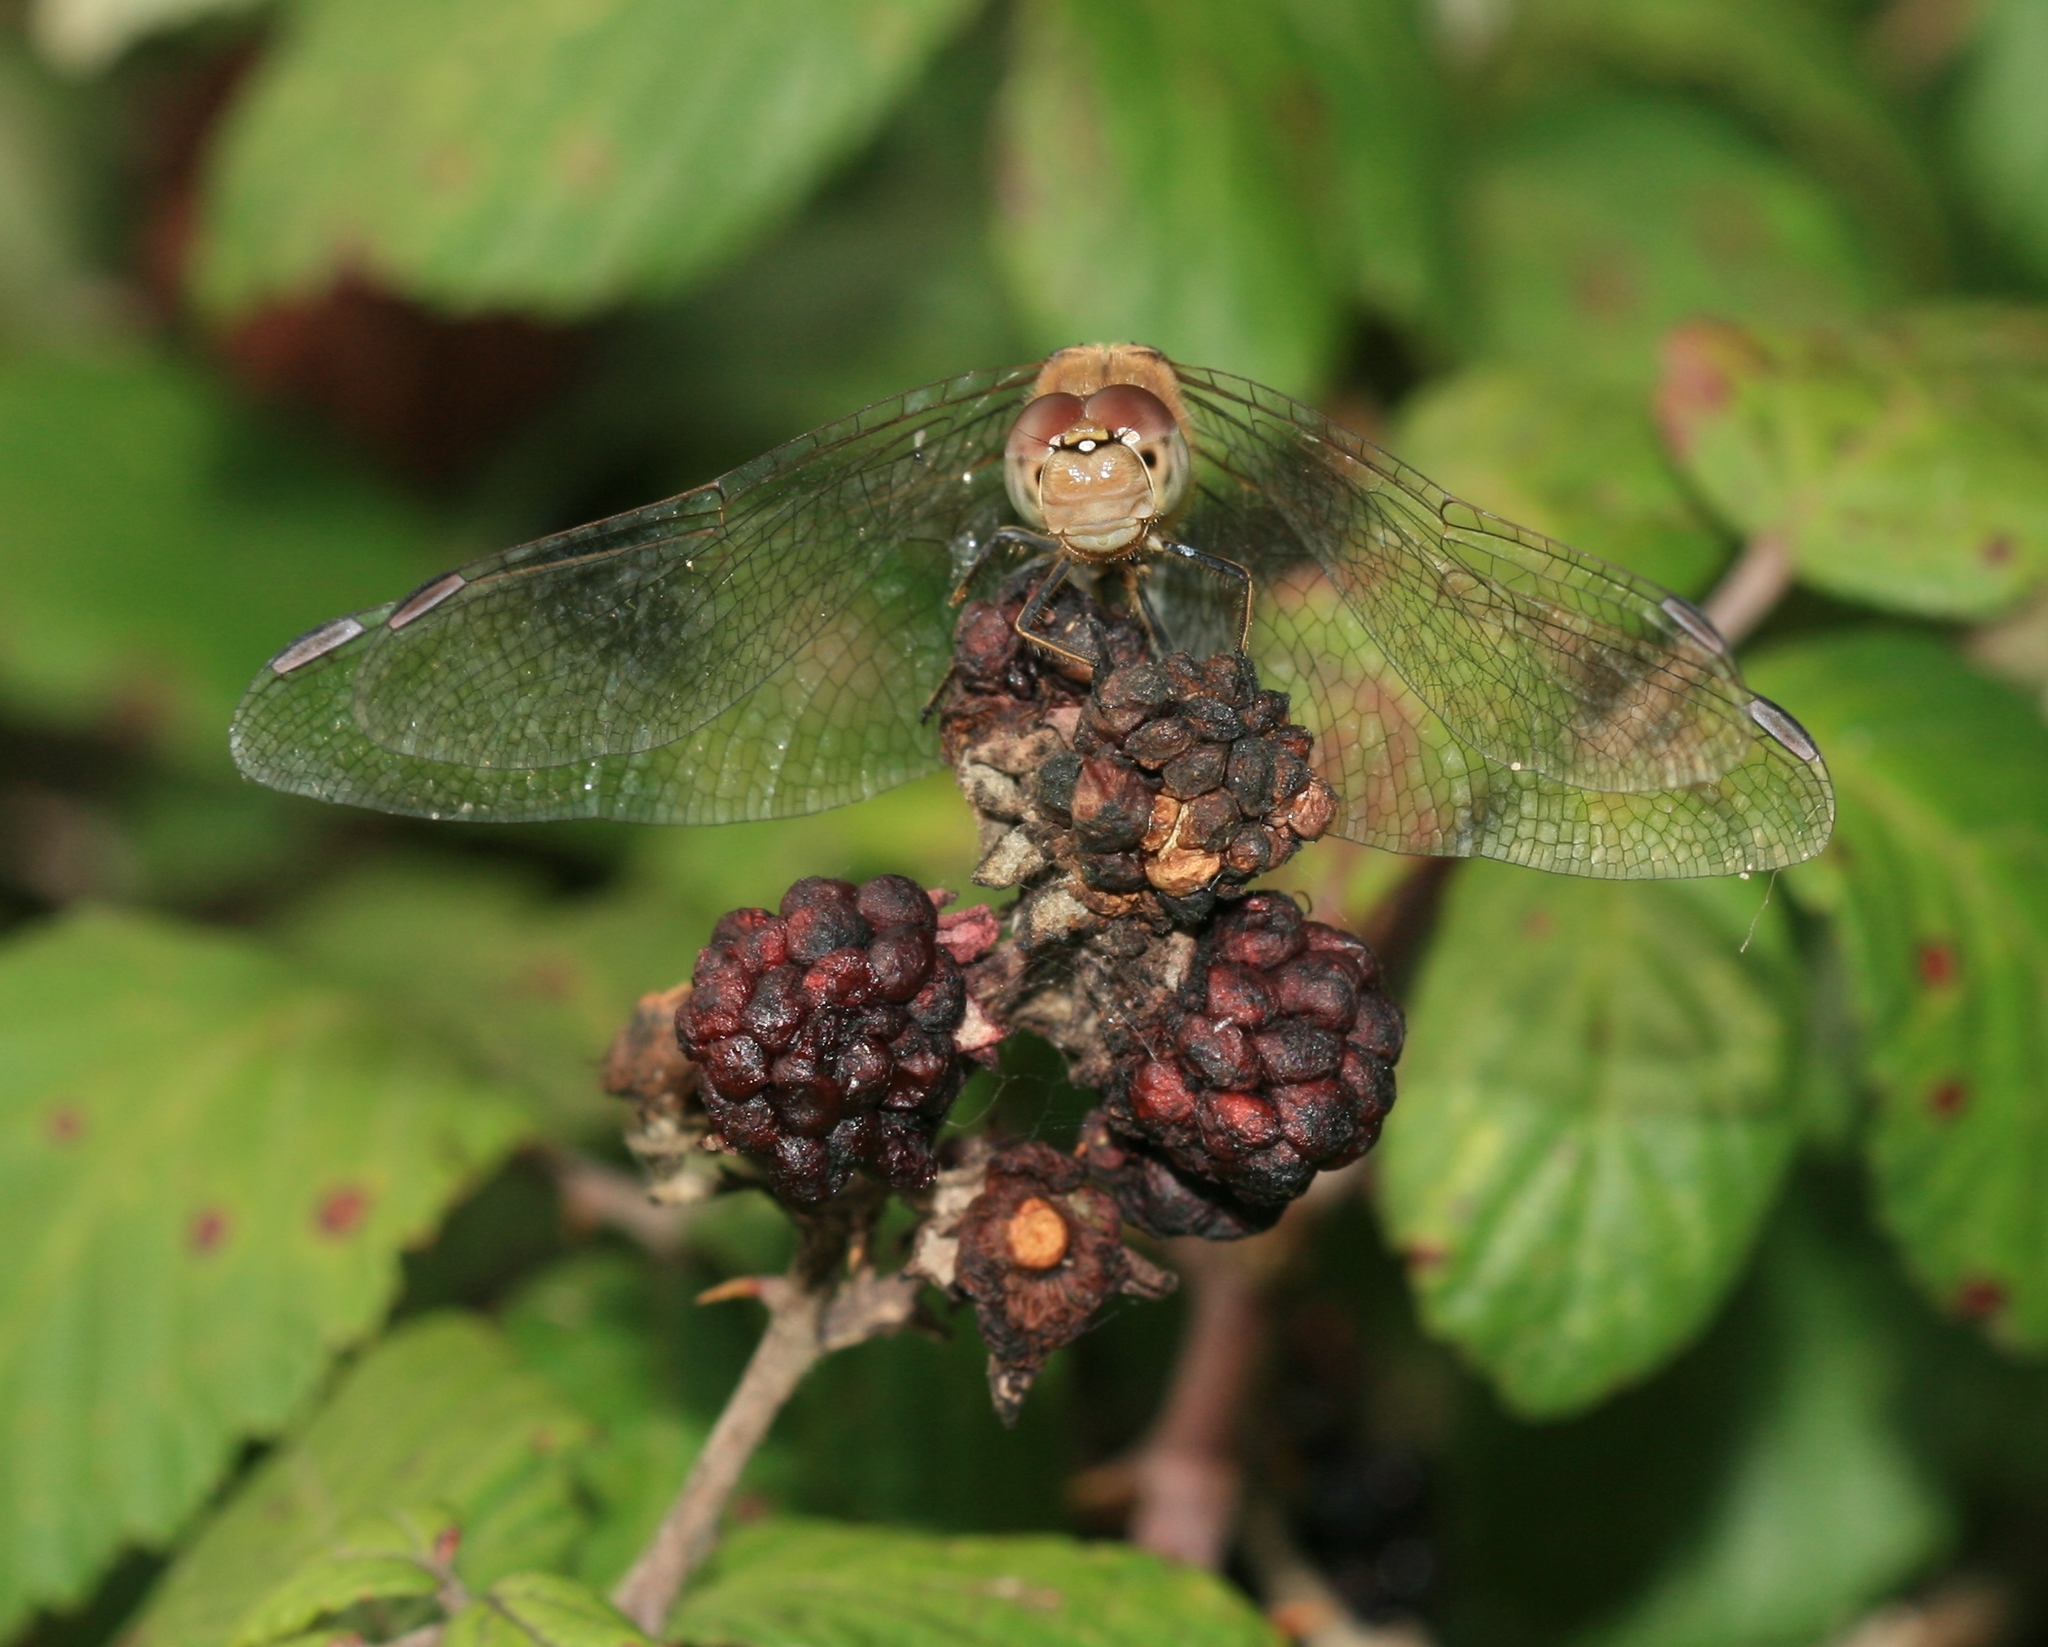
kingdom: Animalia
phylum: Arthropoda
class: Insecta
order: Odonata
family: Libellulidae
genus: Sympetrum
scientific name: Sympetrum striolatum
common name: Common darter
